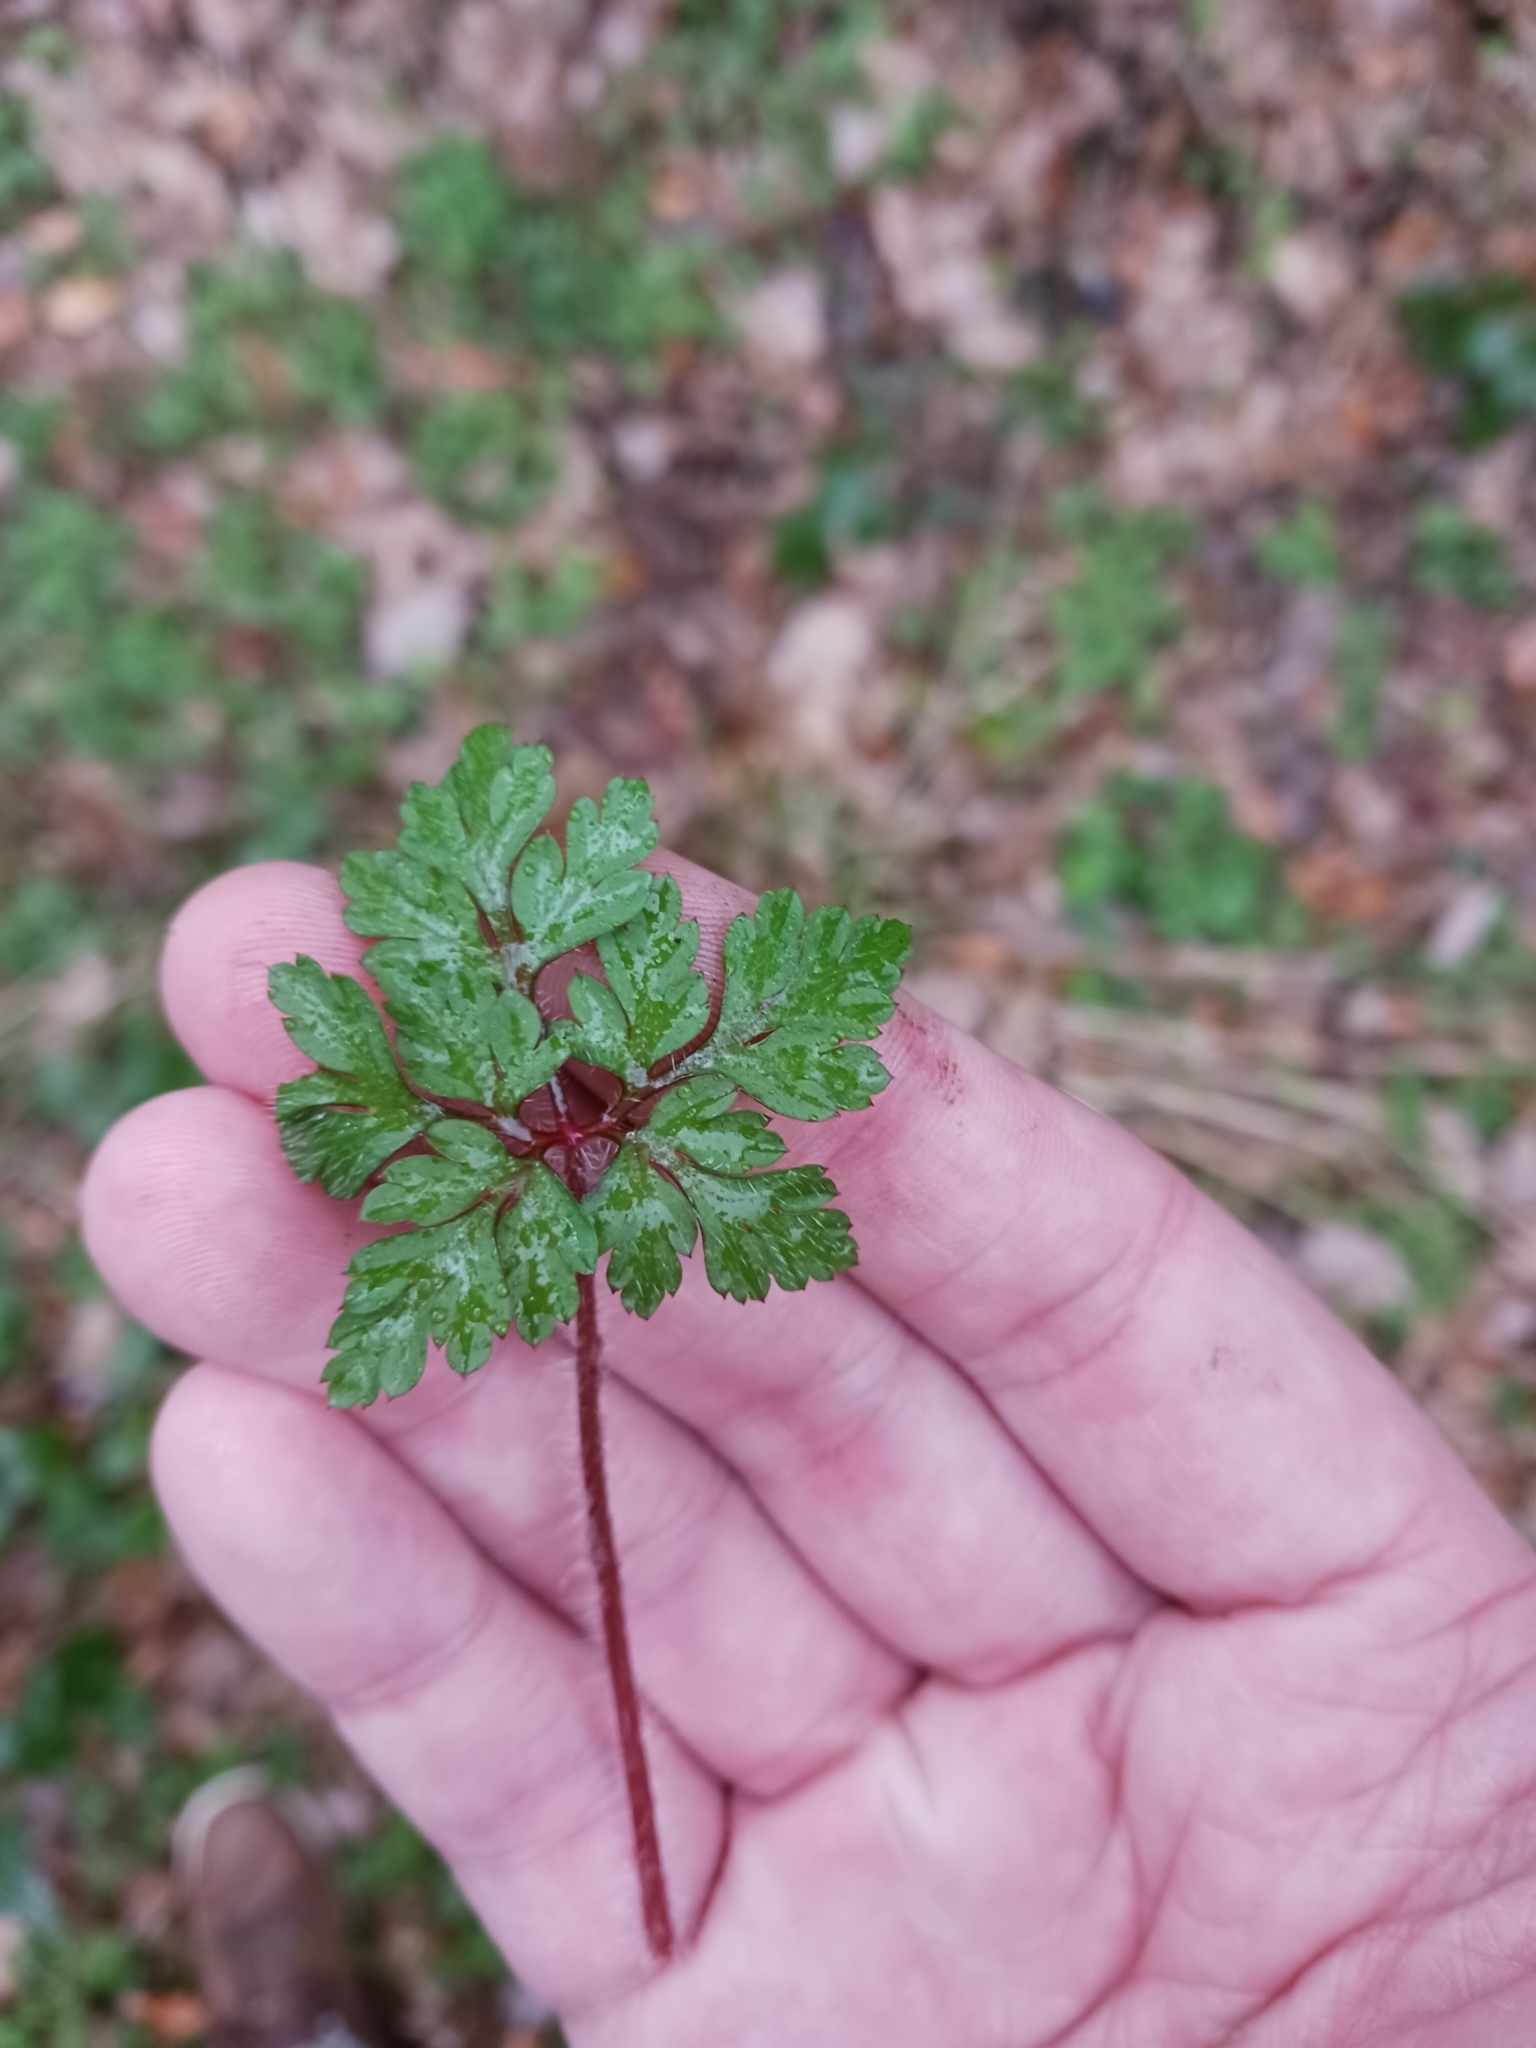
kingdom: Plantae
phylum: Tracheophyta
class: Magnoliopsida
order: Geraniales
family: Geraniaceae
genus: Geranium
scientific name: Geranium robertianum
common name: Herb-robert
